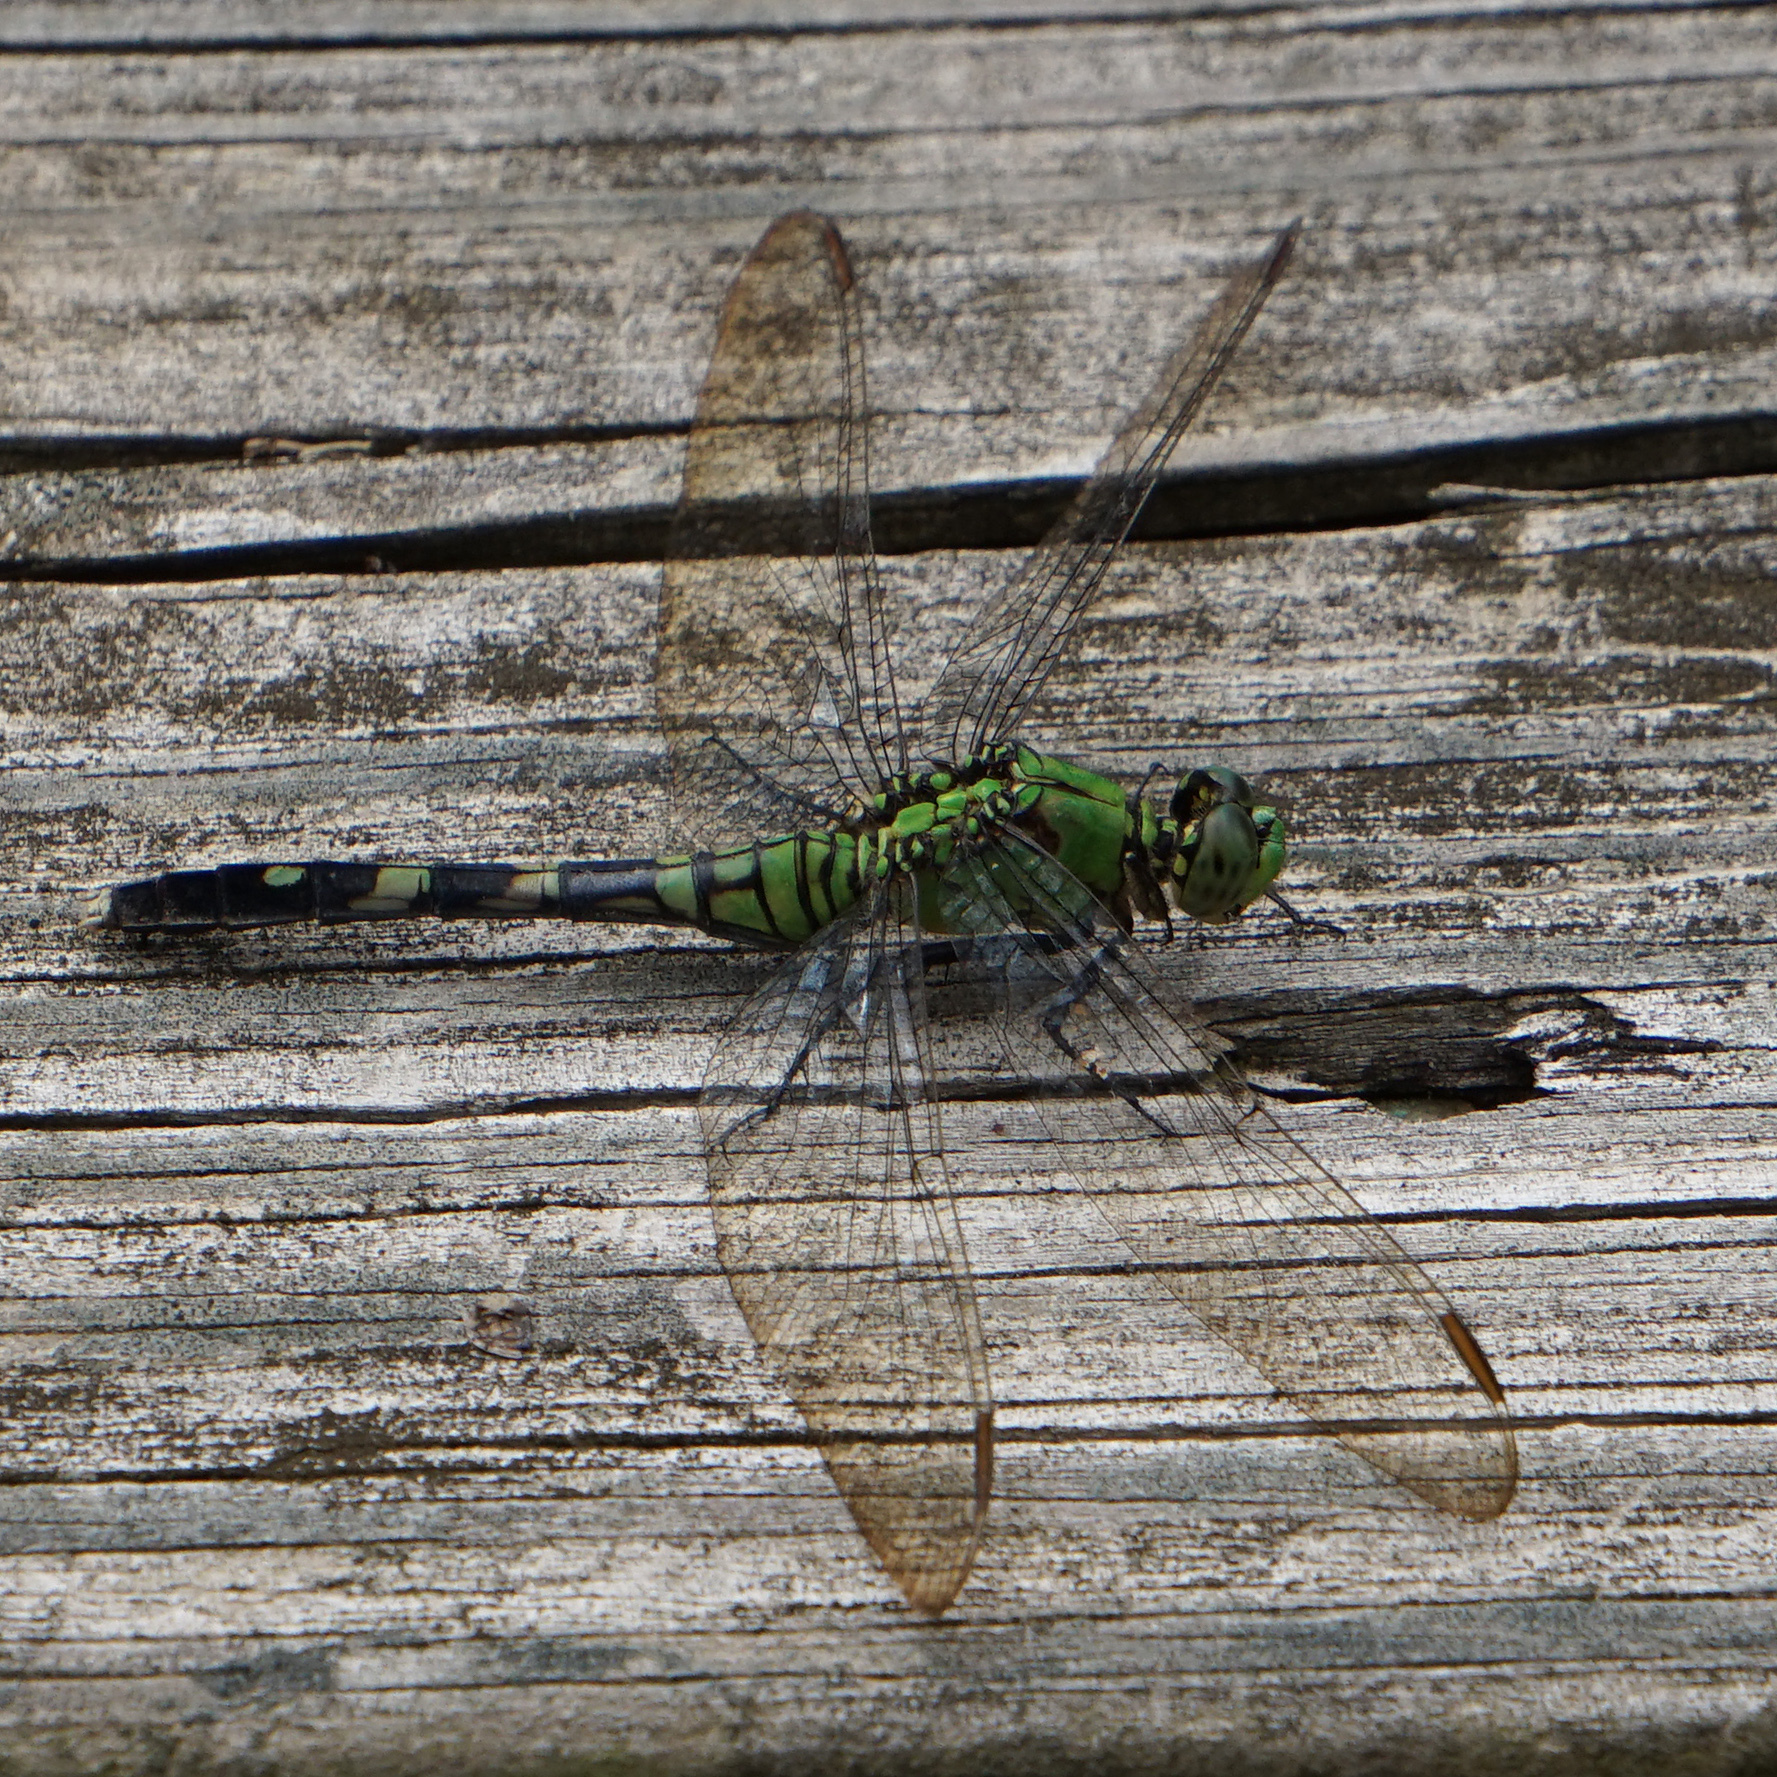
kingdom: Animalia
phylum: Arthropoda
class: Insecta
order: Odonata
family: Libellulidae
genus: Erythemis
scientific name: Erythemis simplicicollis
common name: Eastern pondhawk
